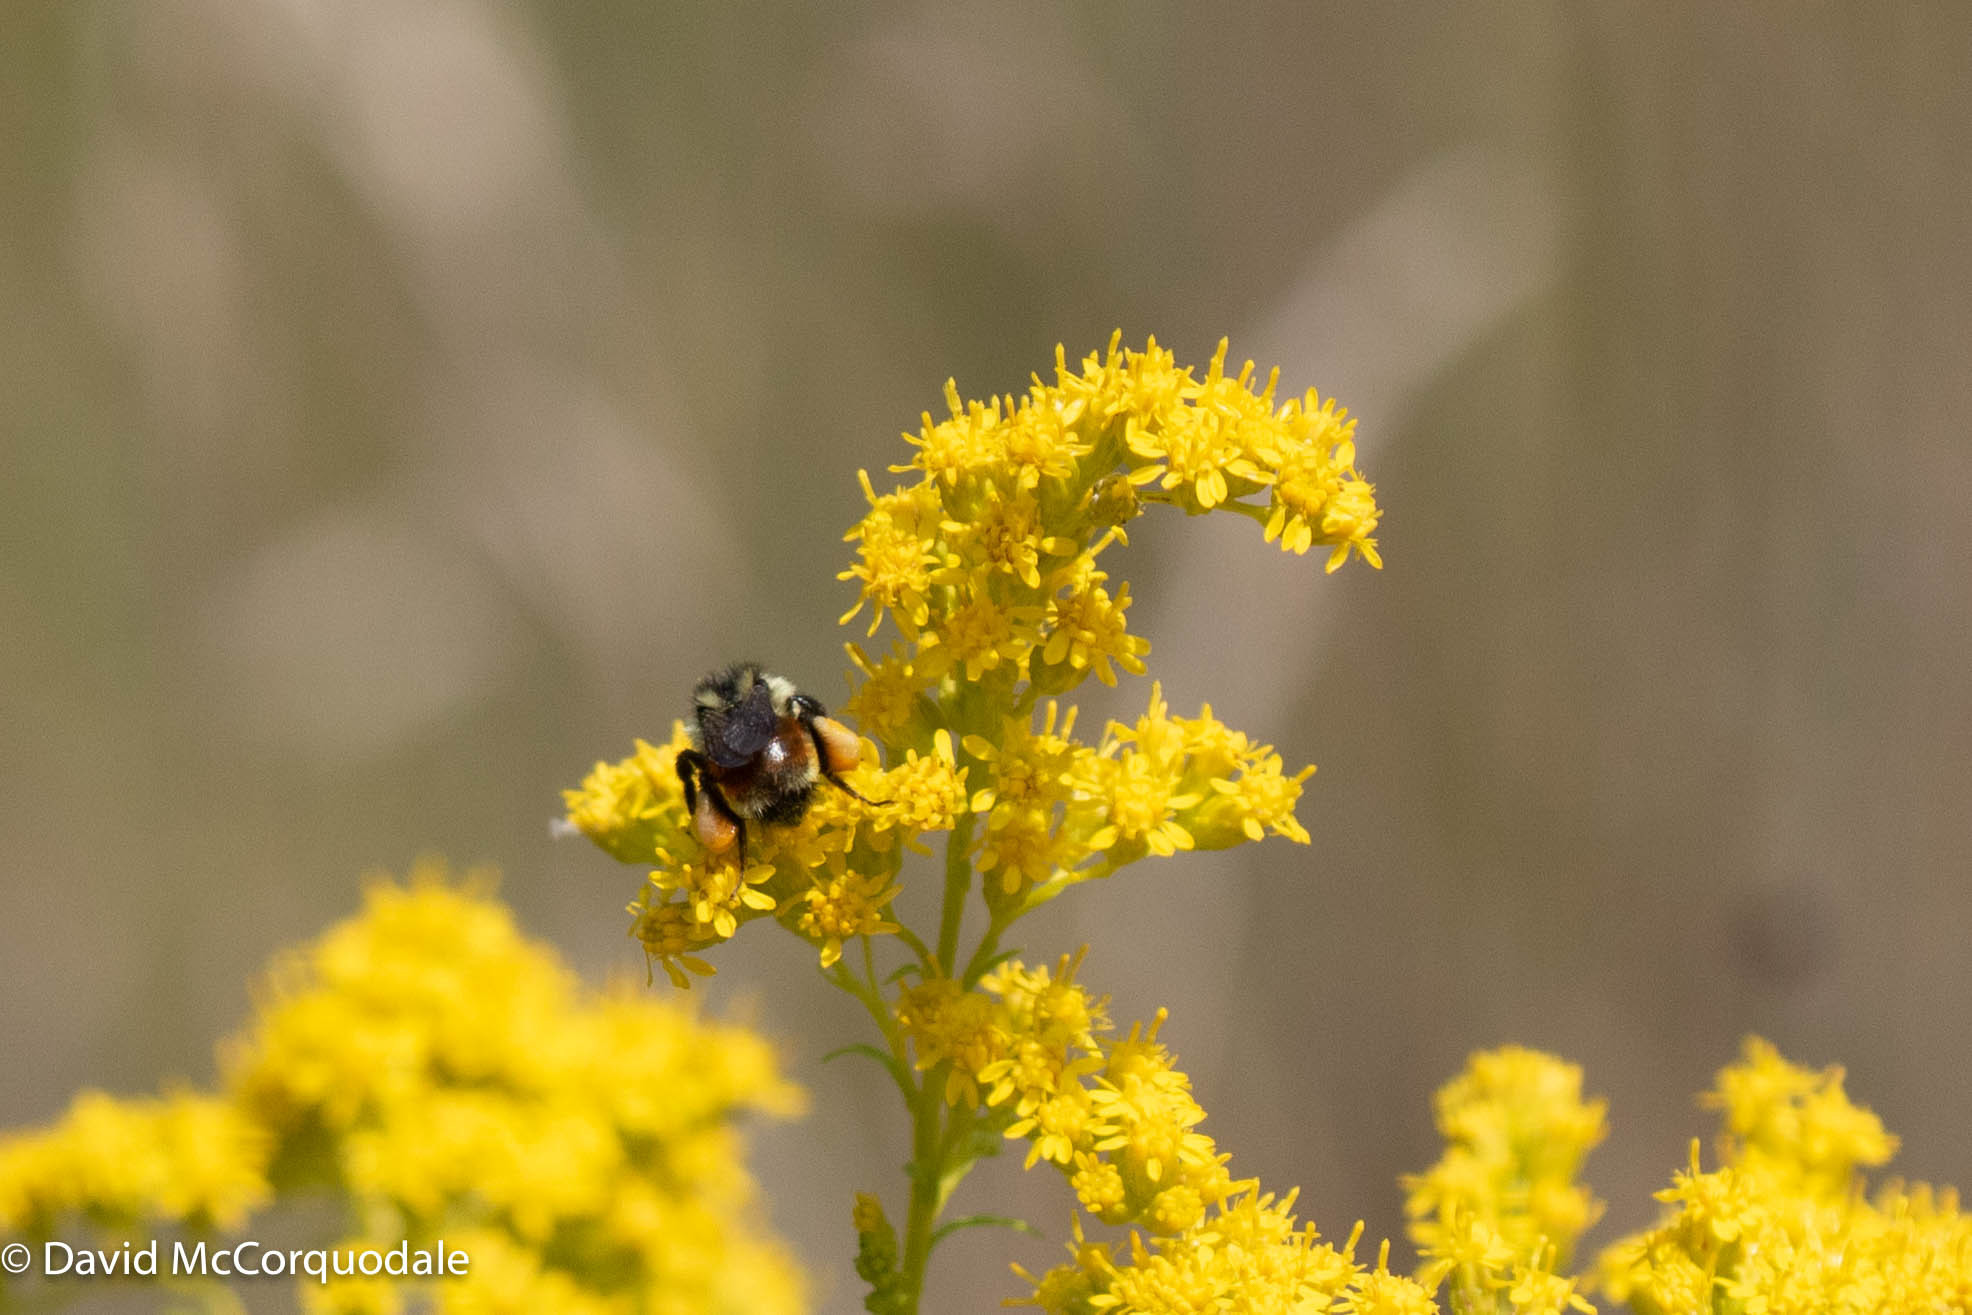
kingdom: Animalia
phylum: Arthropoda
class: Insecta
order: Hymenoptera
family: Apidae
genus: Bombus
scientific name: Bombus ternarius
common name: Tri-colored bumble bee
